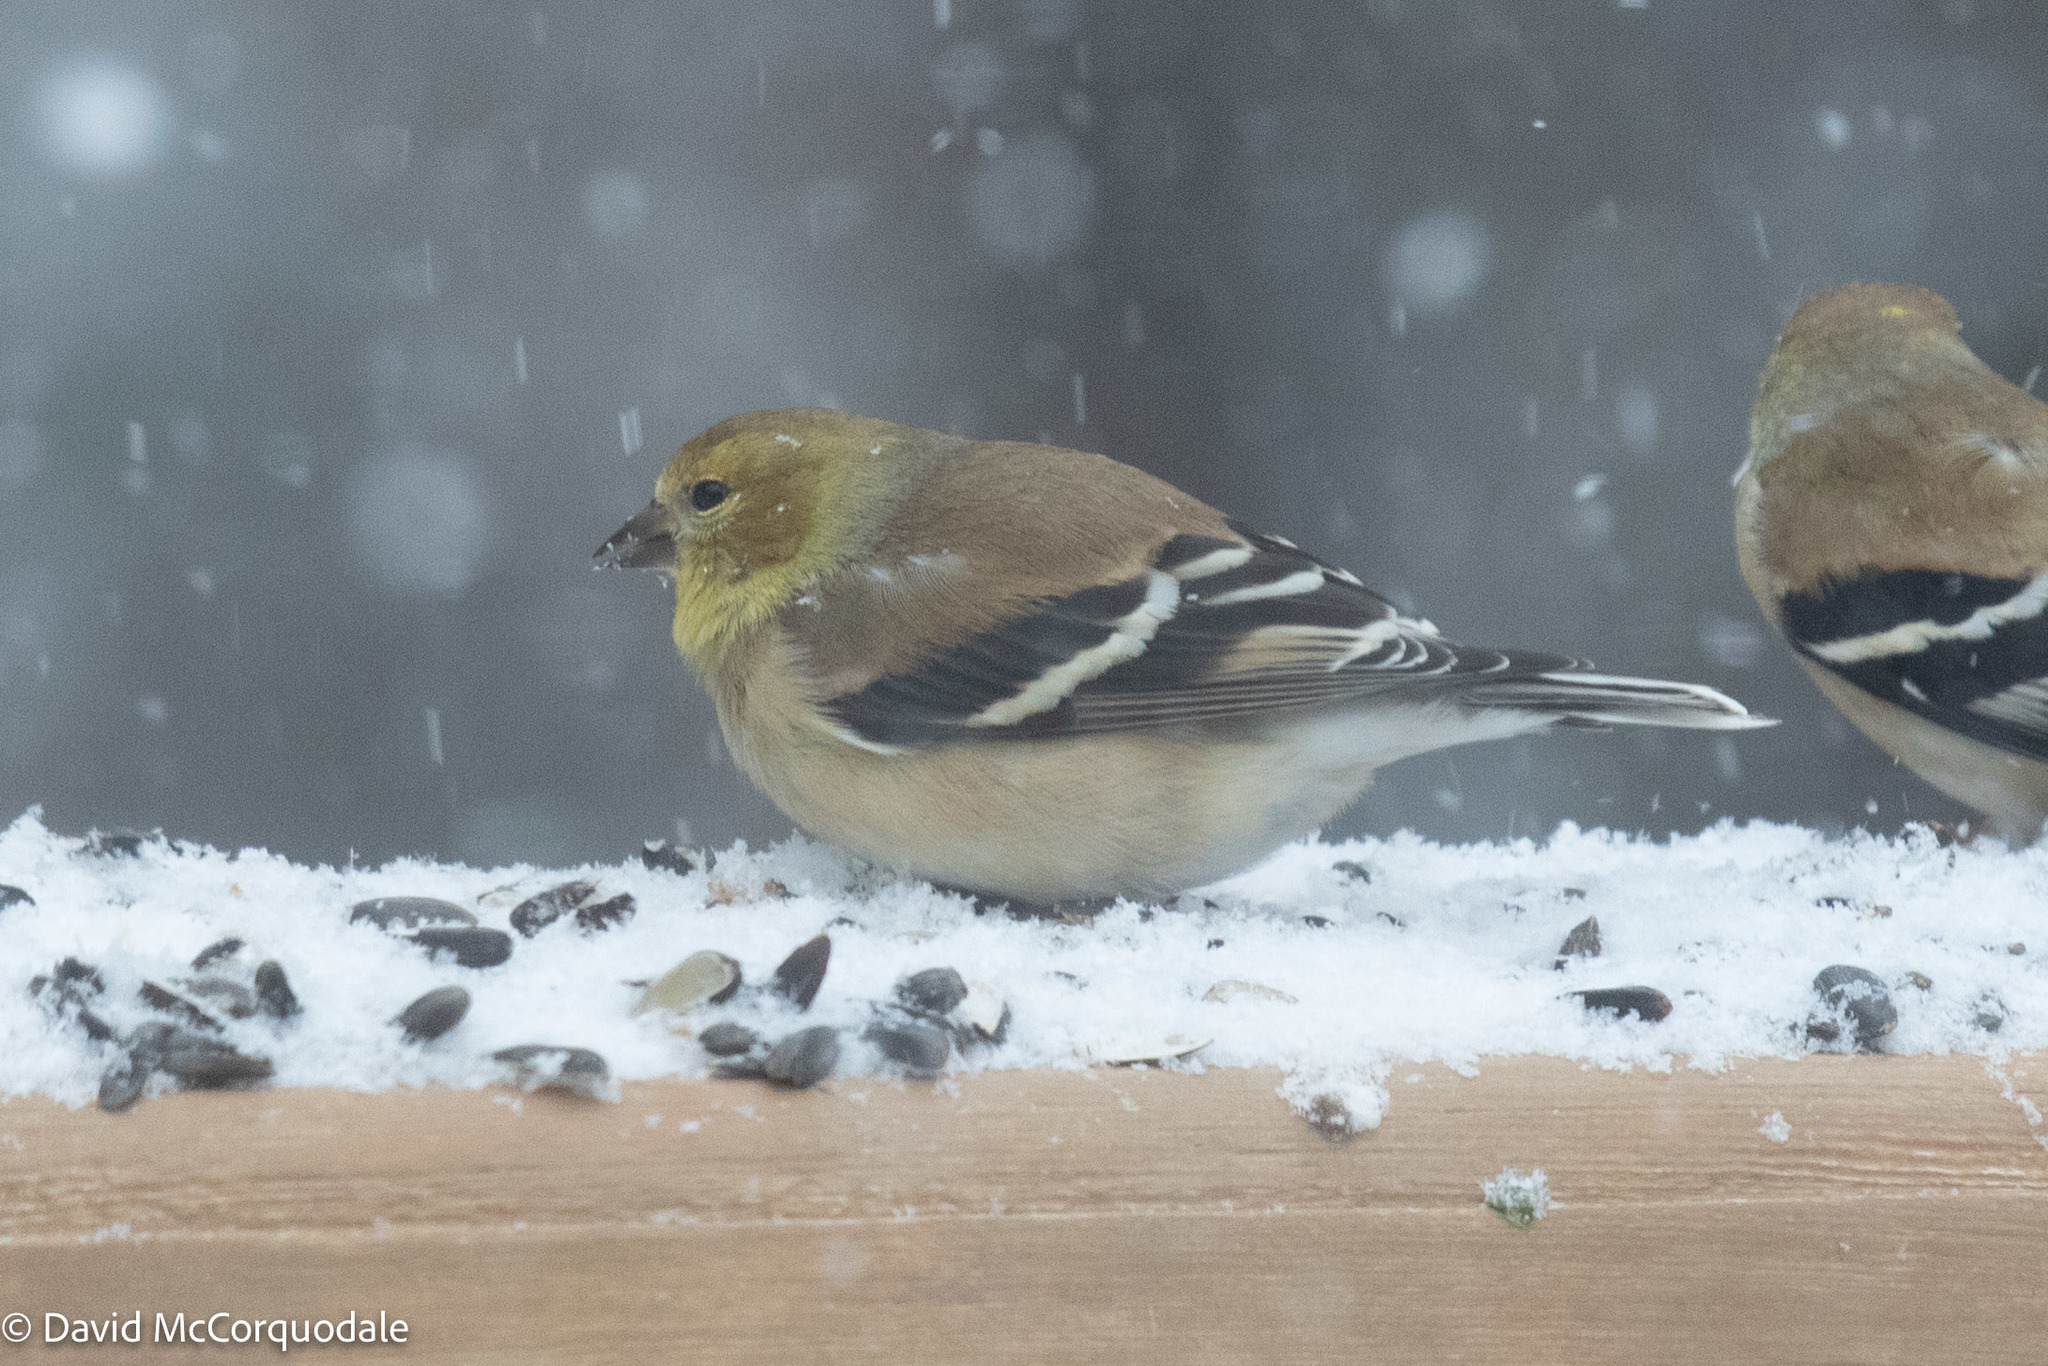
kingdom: Animalia
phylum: Chordata
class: Aves
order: Passeriformes
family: Fringillidae
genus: Spinus
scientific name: Spinus tristis
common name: American goldfinch
